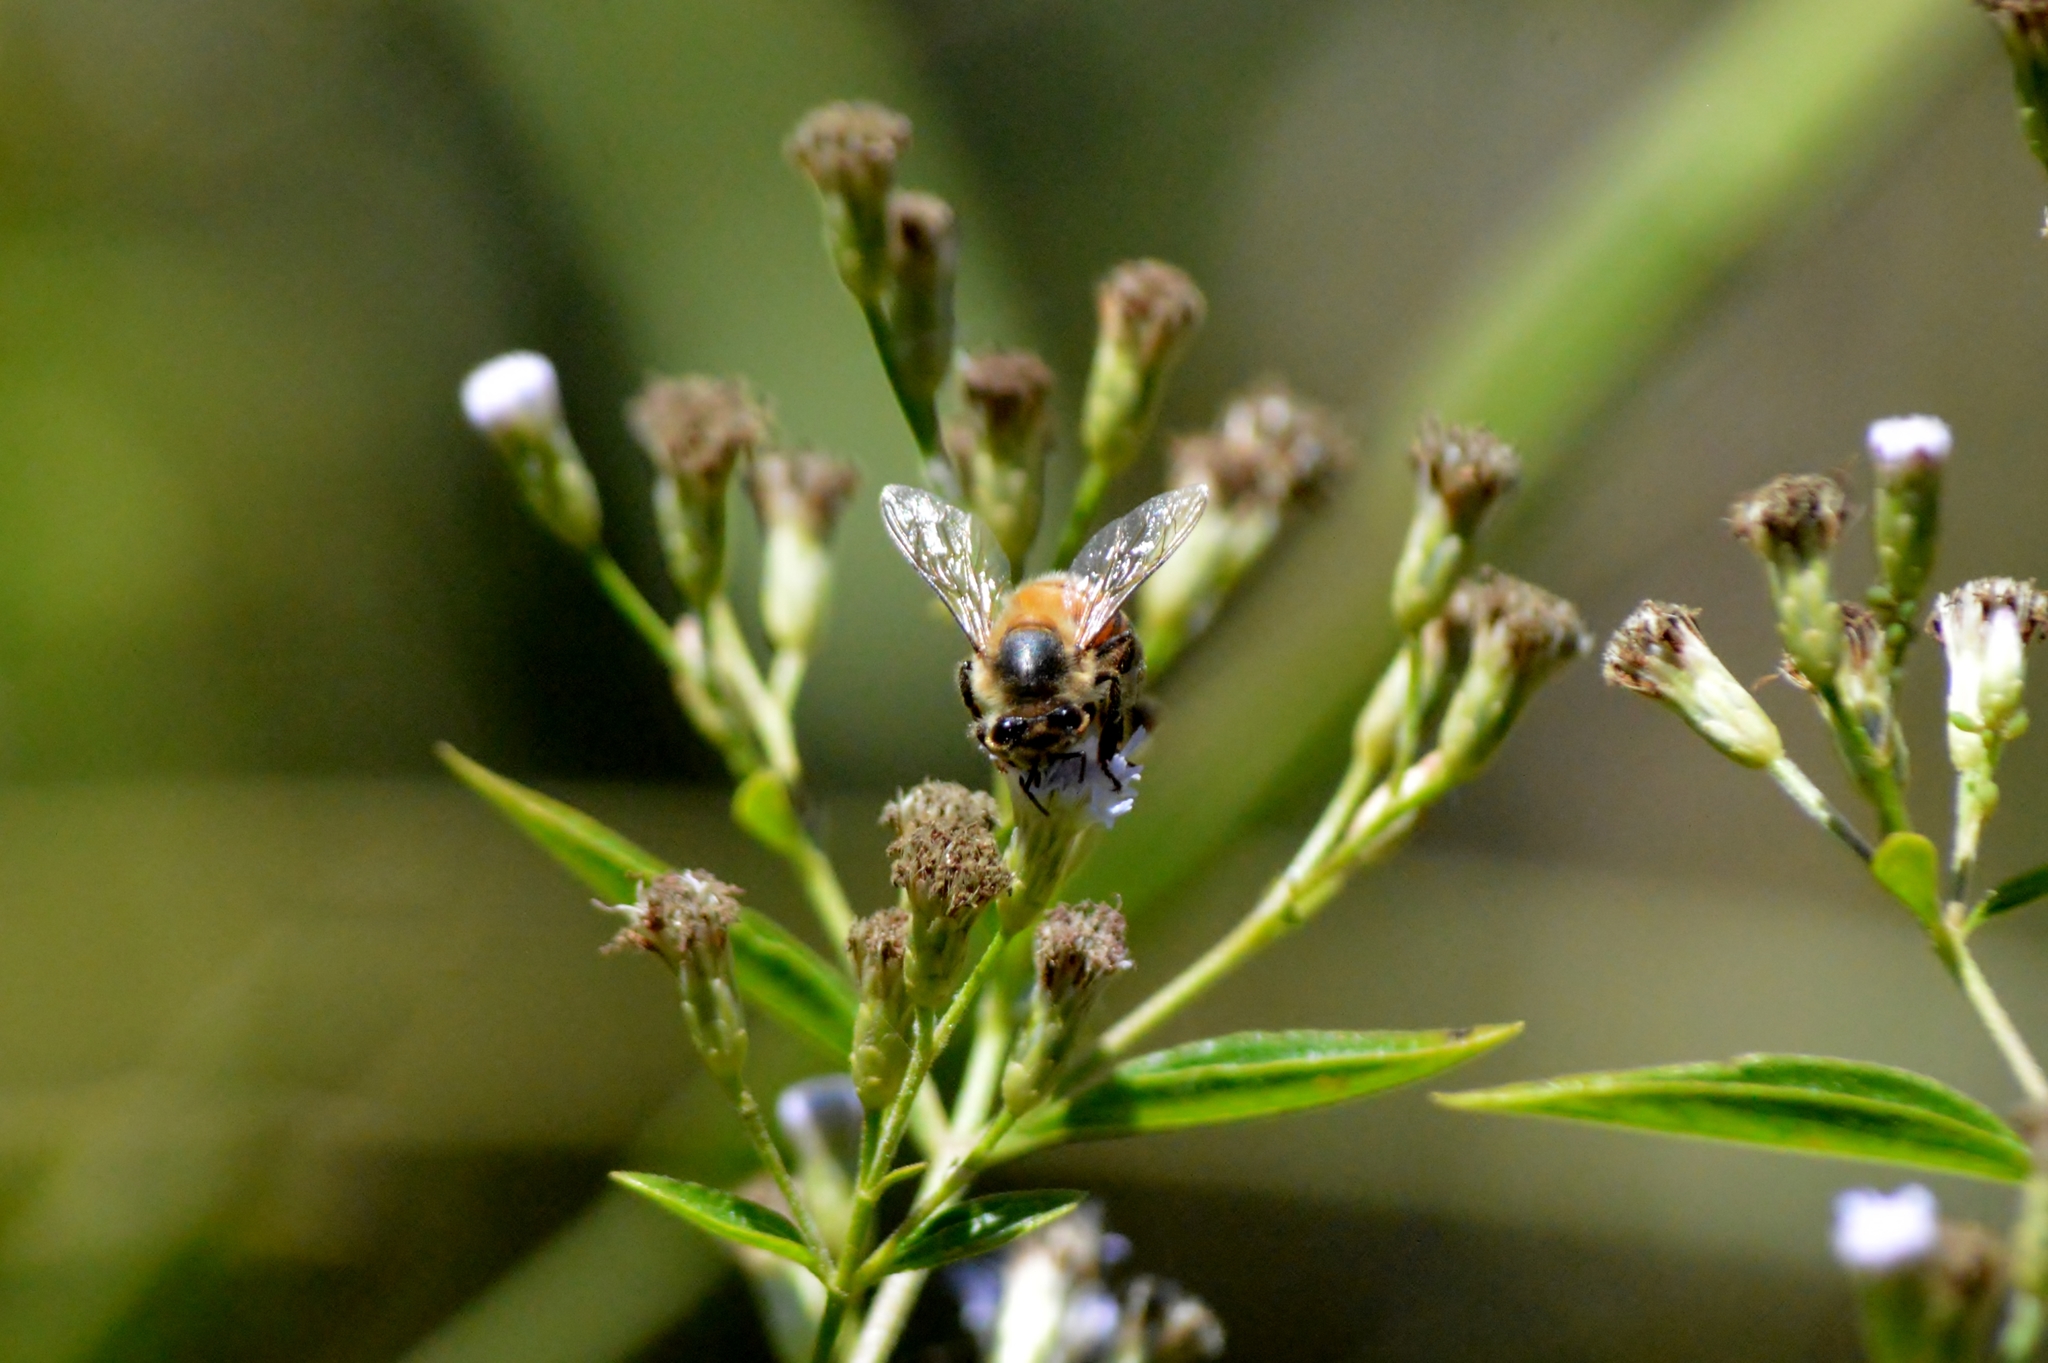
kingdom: Animalia
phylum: Arthropoda
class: Insecta
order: Hymenoptera
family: Apidae
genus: Apis
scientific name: Apis mellifera
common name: Honey bee
